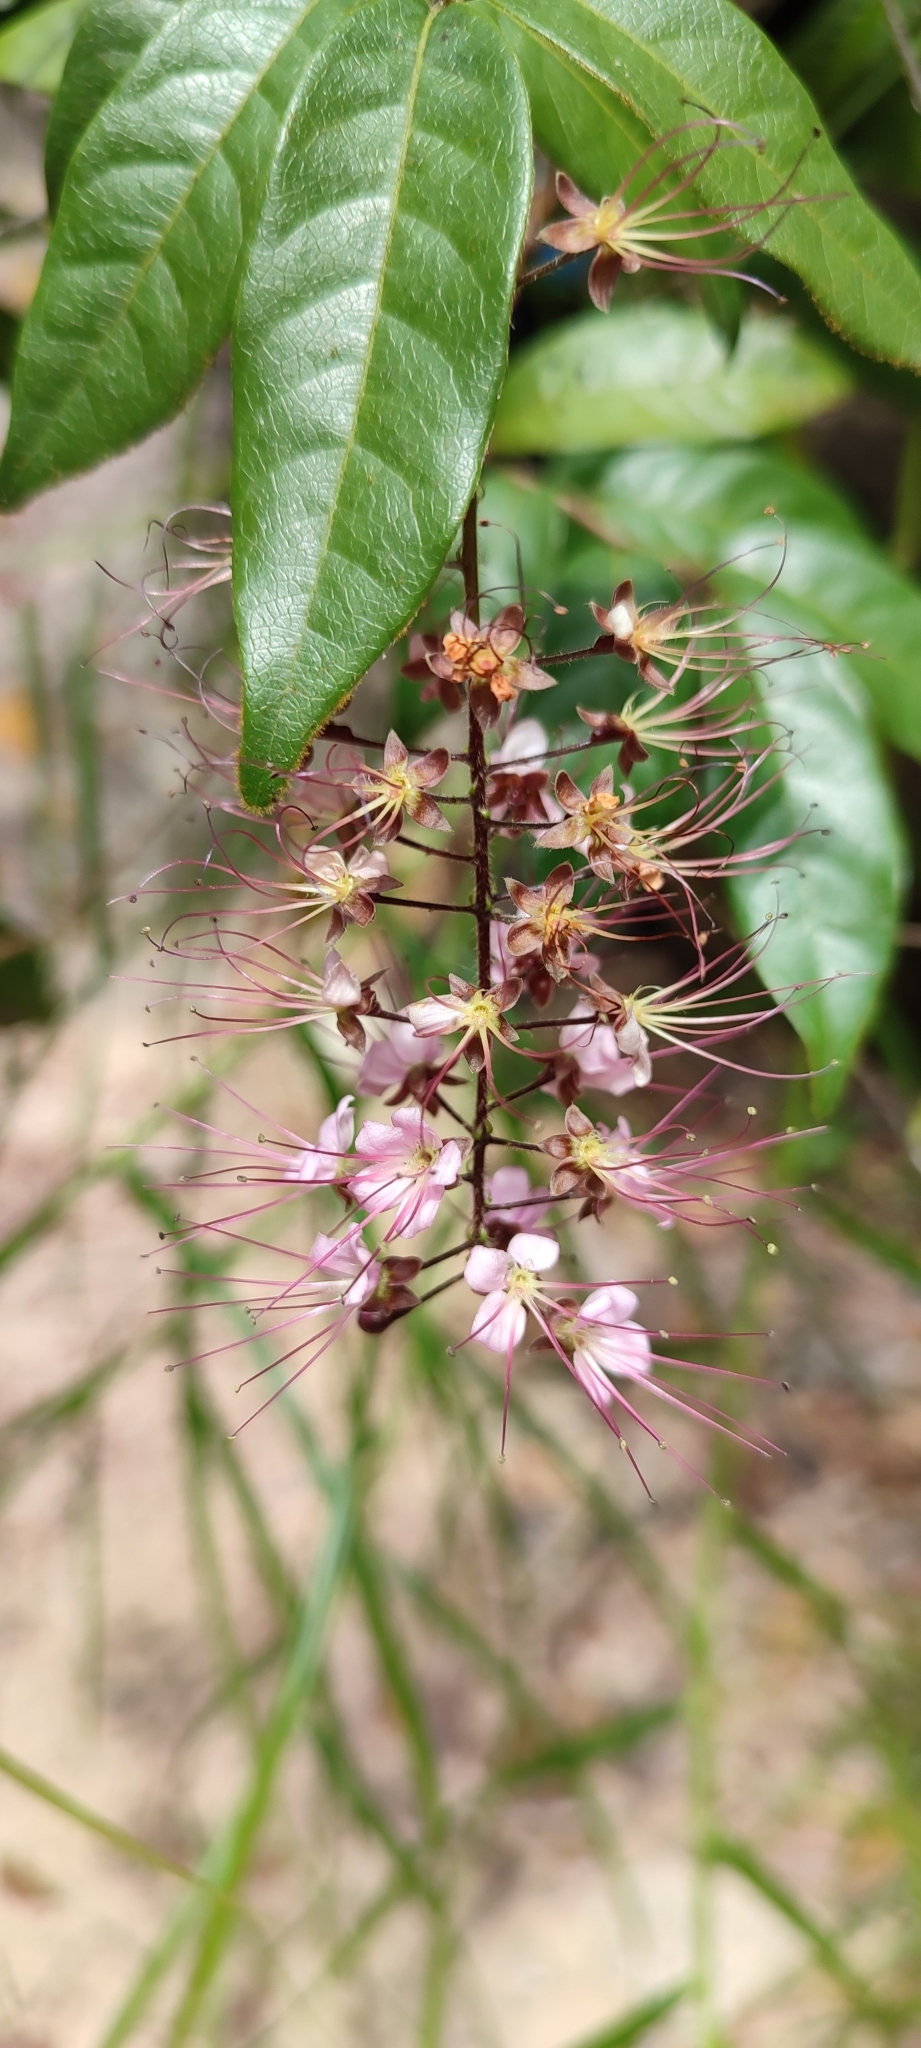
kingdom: Plantae
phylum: Tracheophyta
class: Magnoliopsida
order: Malpighiales
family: Chrysobalanaceae
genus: Hirtella
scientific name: Hirtella racemosa
